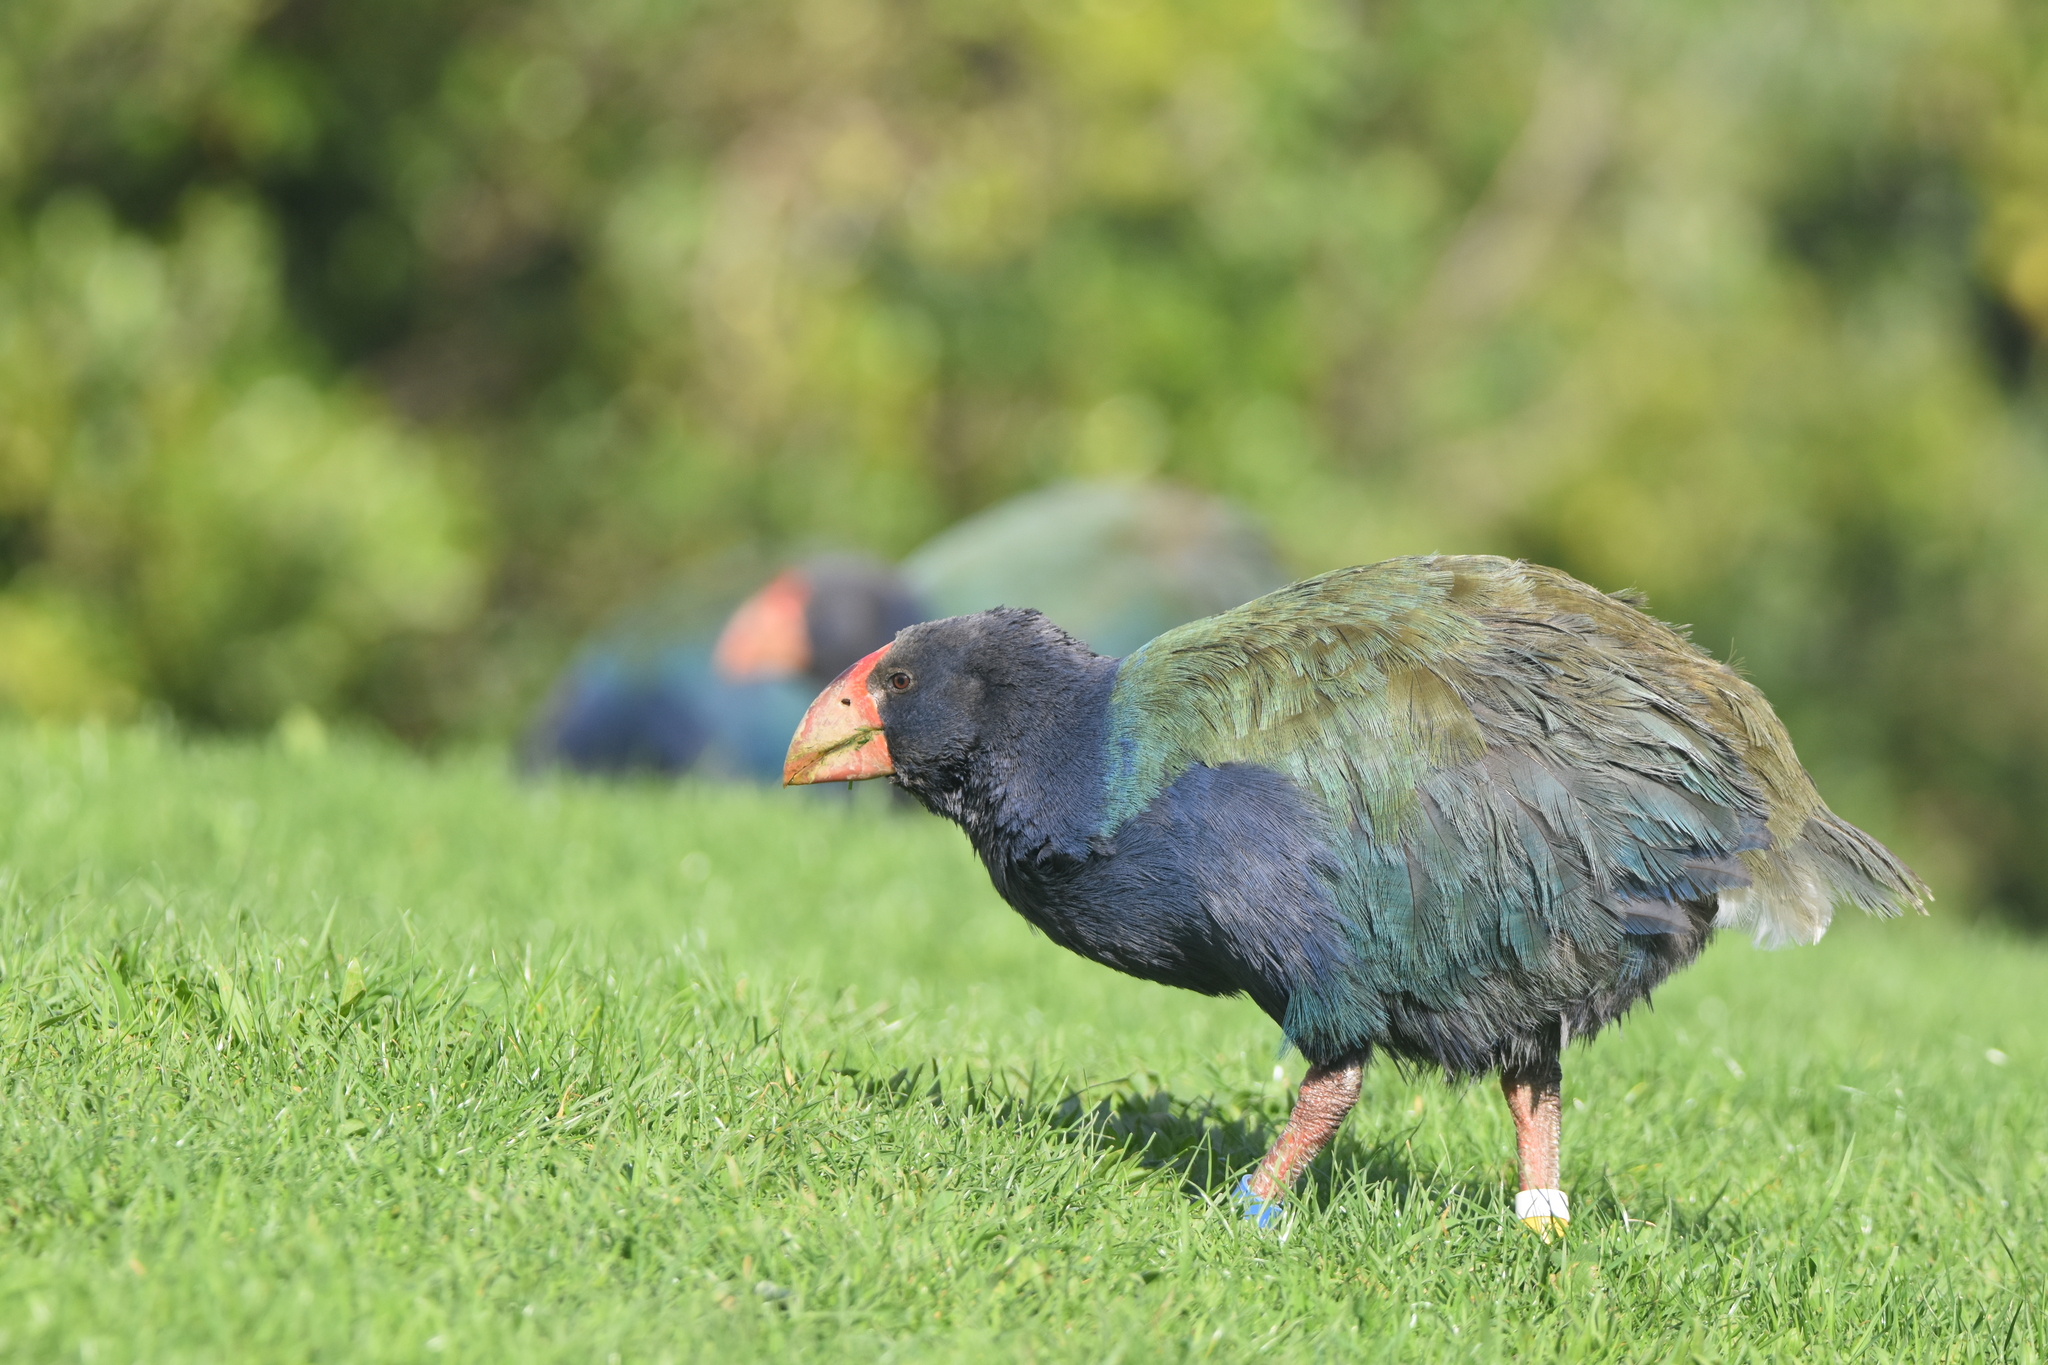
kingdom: Animalia
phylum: Chordata
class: Aves
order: Gruiformes
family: Rallidae
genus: Porphyrio
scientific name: Porphyrio hochstetteri
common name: South island takahe
